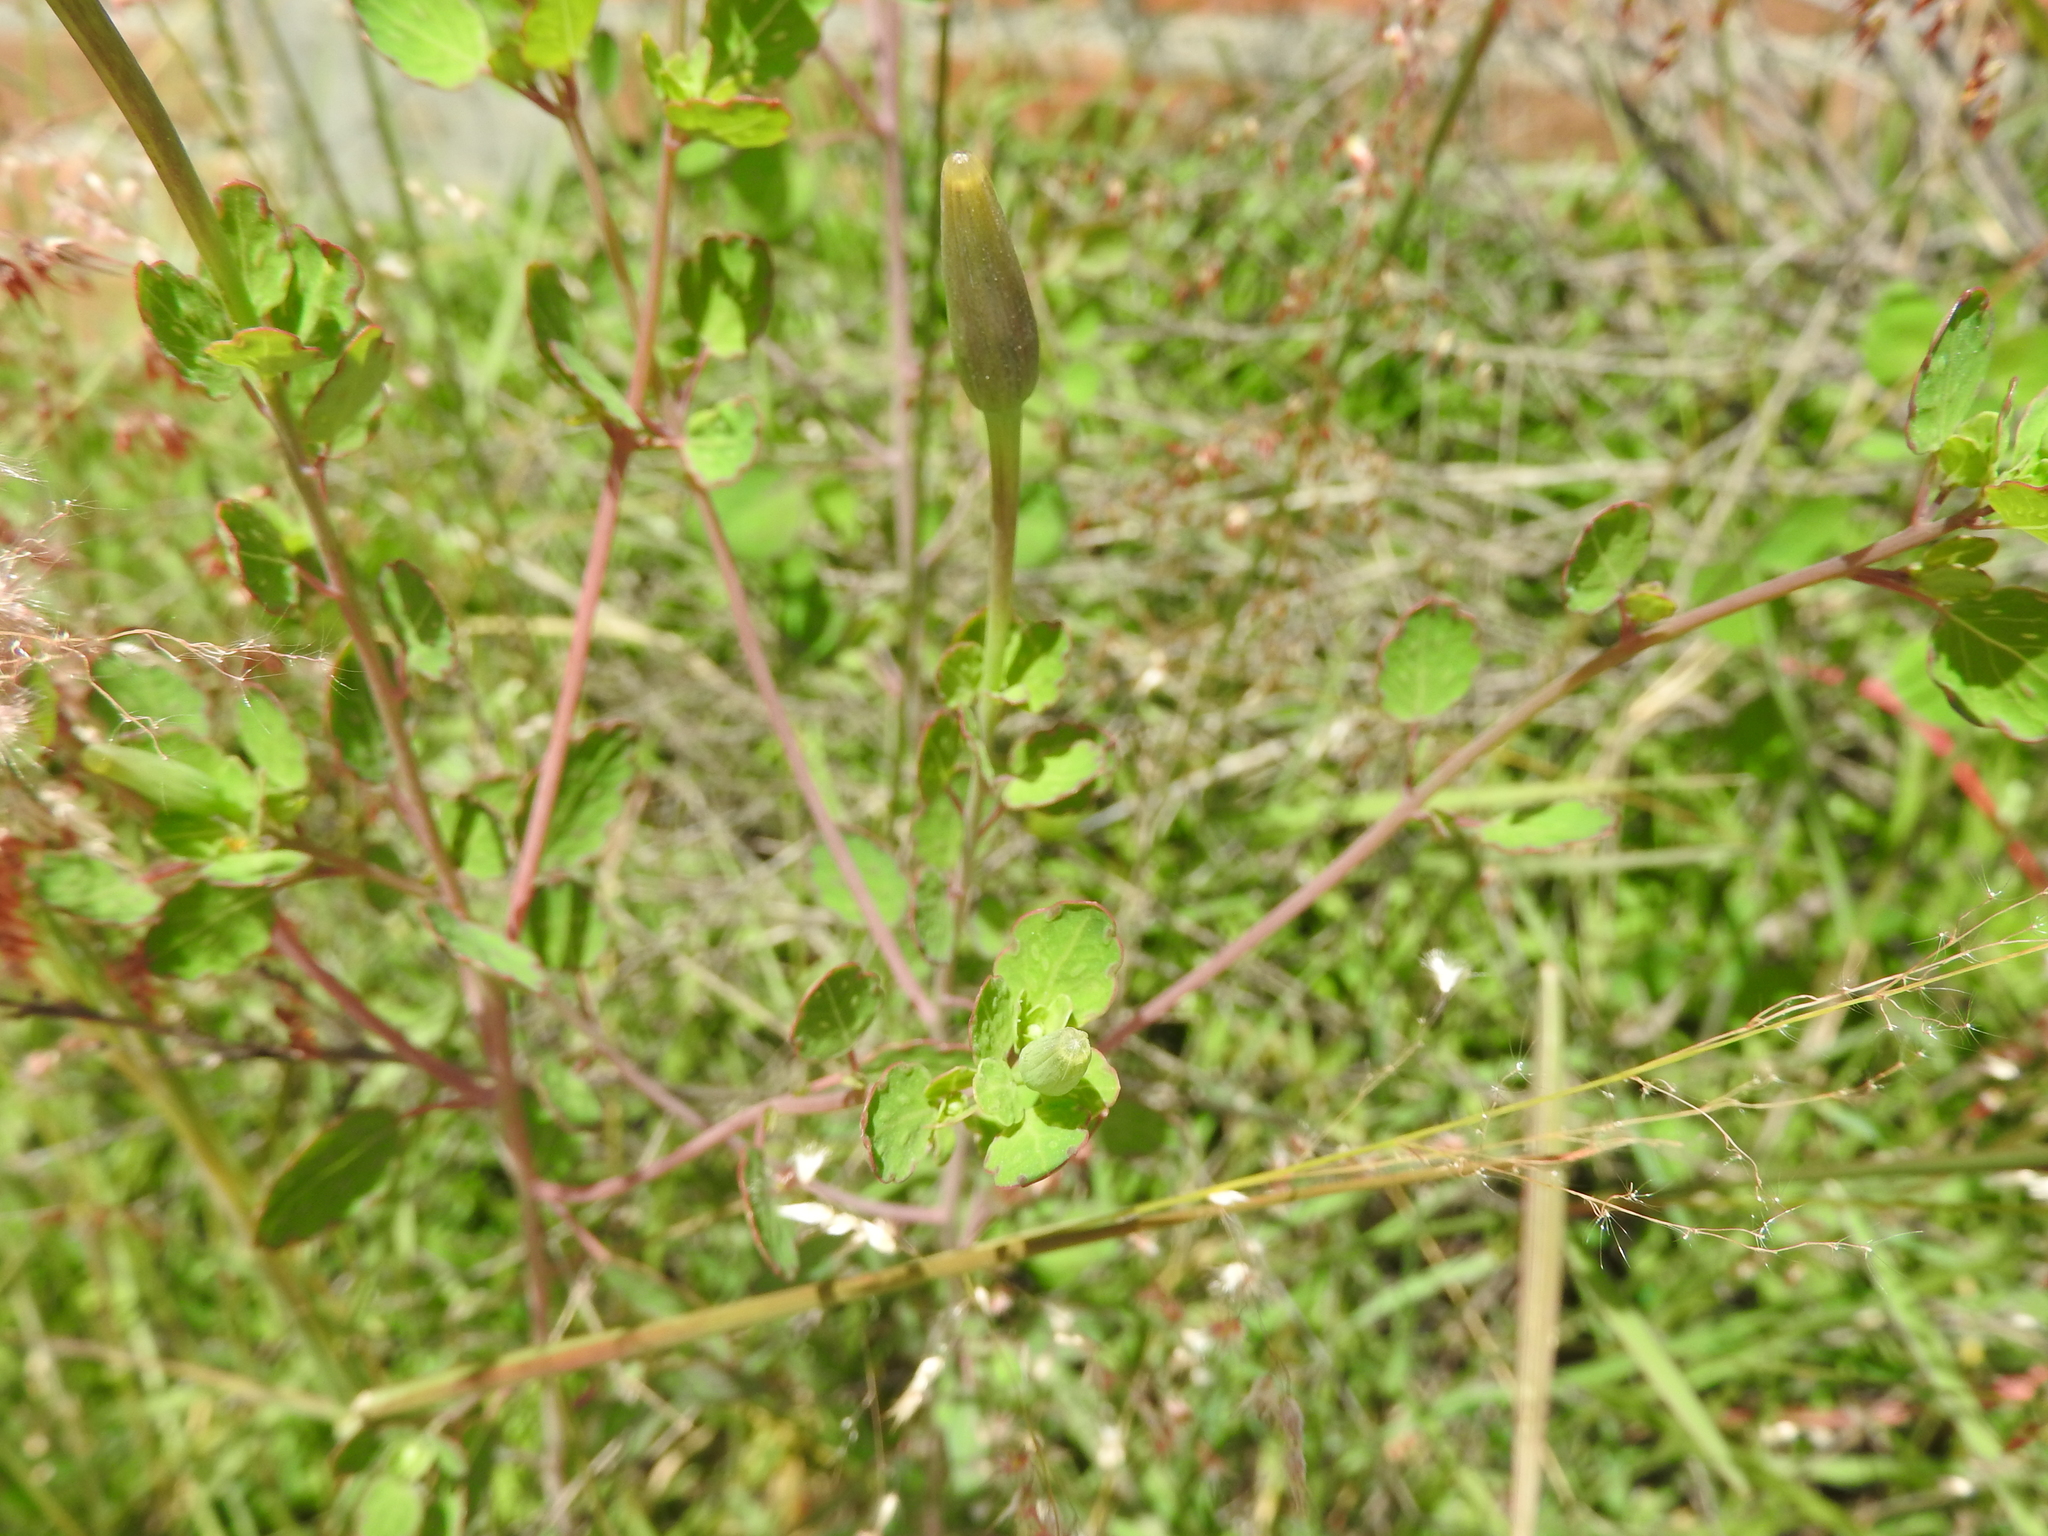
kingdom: Plantae
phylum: Tracheophyta
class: Magnoliopsida
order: Asterales
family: Asteraceae
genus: Porophyllum
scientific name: Porophyllum ruderale
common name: Yerba porosa
